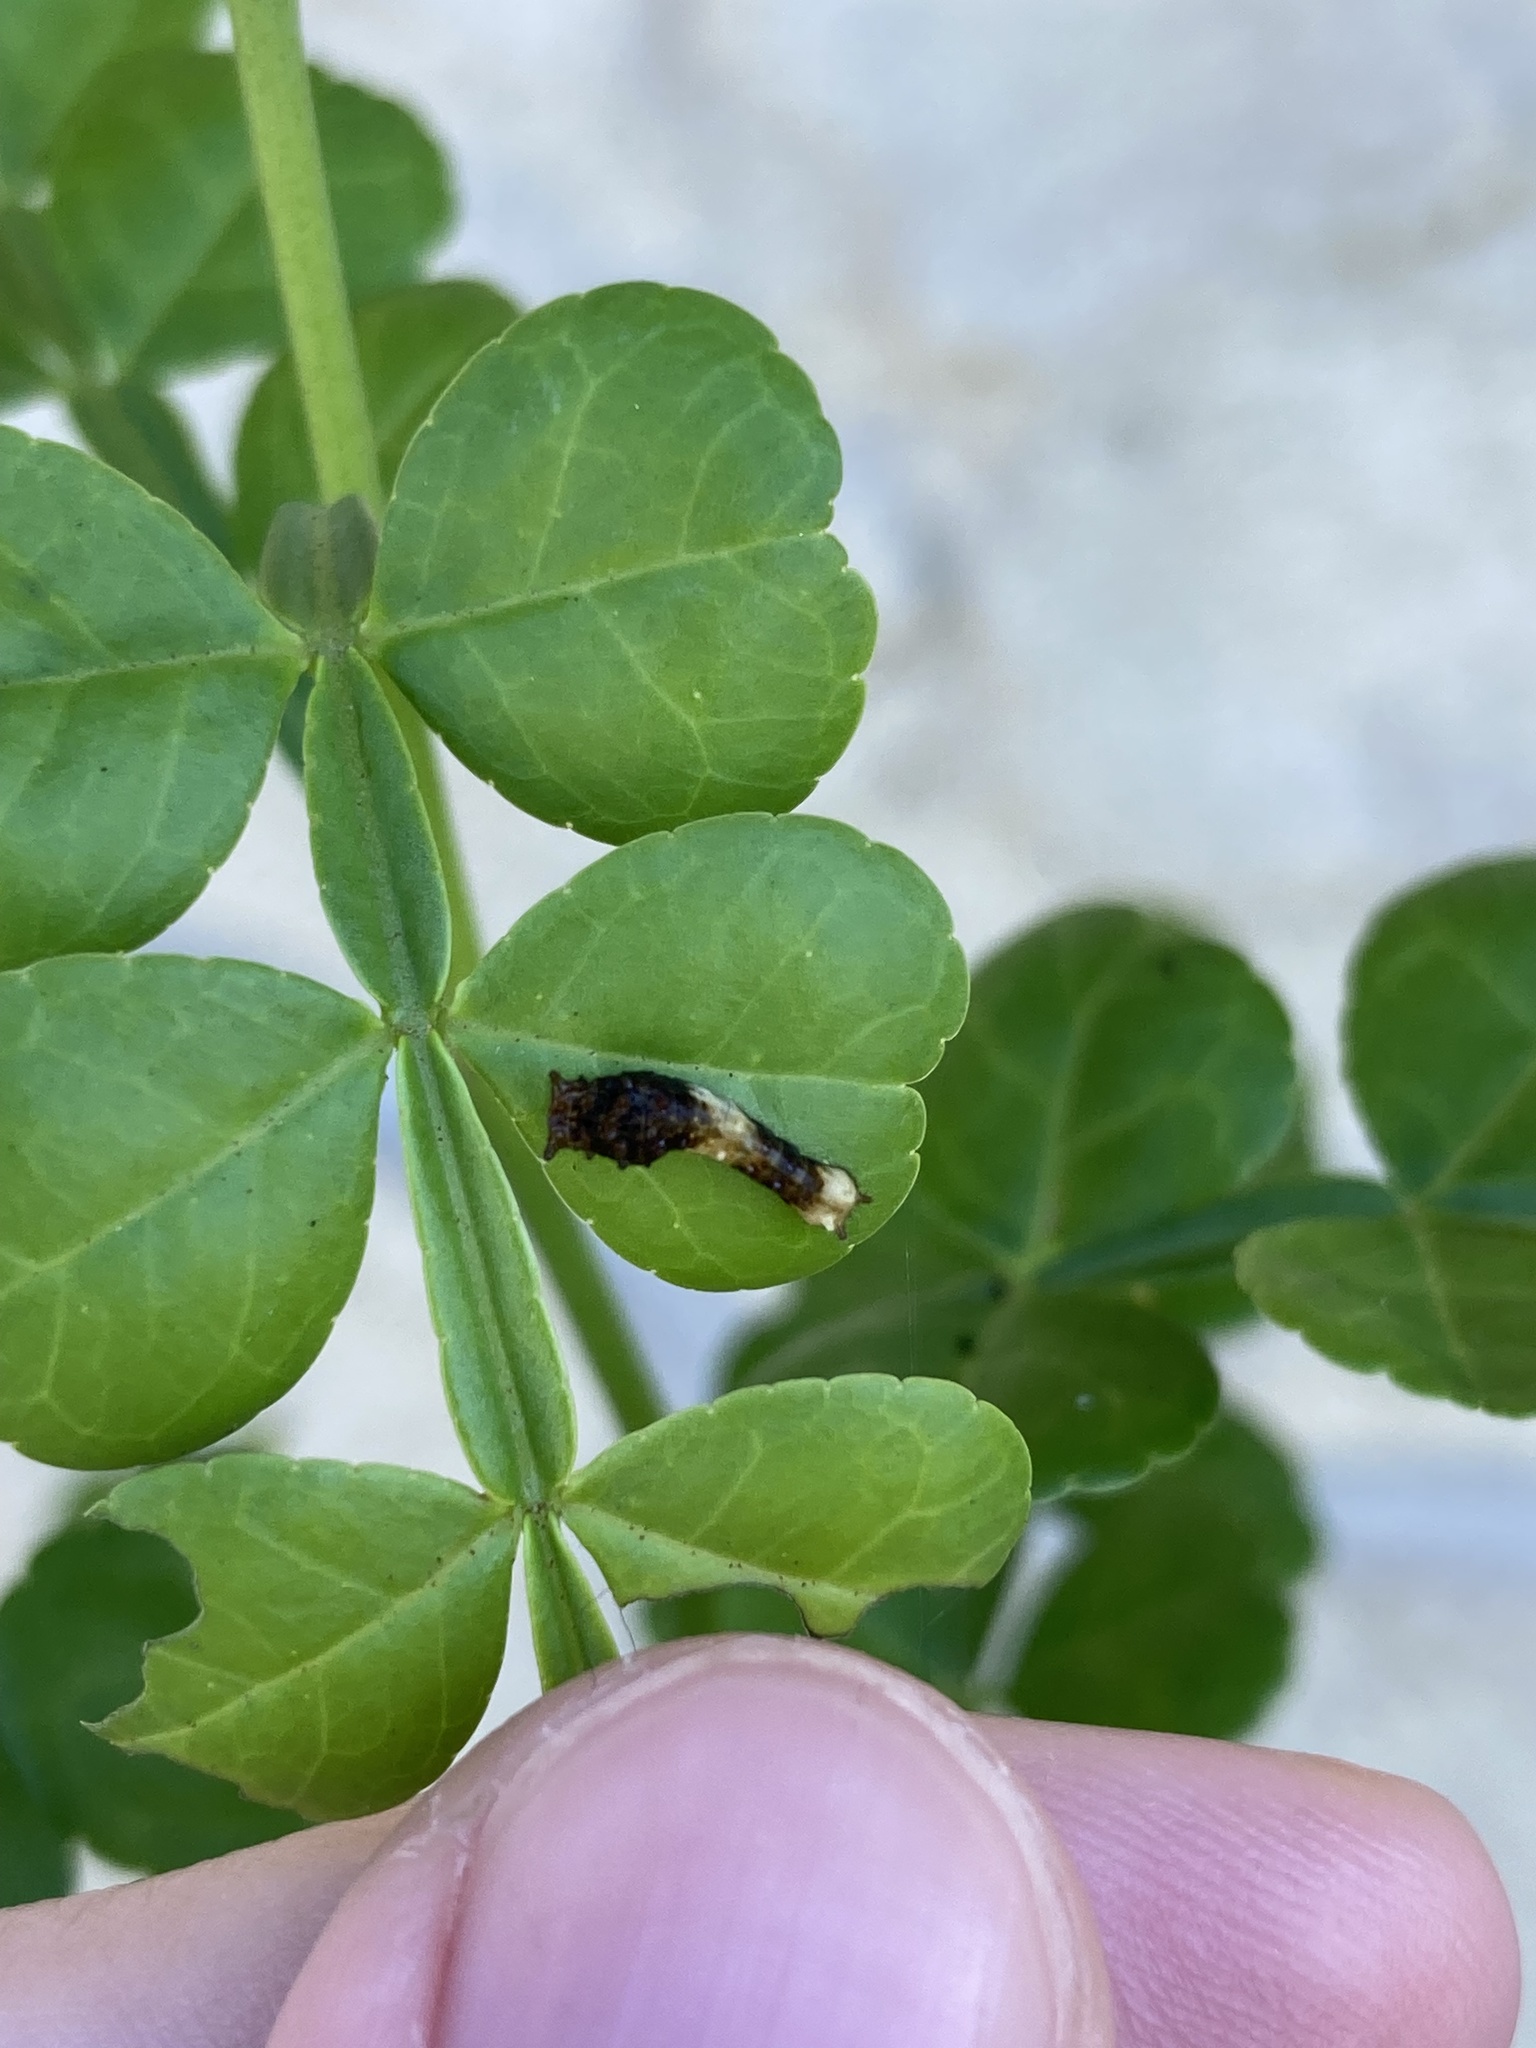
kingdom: Animalia
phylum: Arthropoda
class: Insecta
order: Lepidoptera
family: Papilionidae
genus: Papilio
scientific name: Papilio cresphontes
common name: Giant swallowtail
